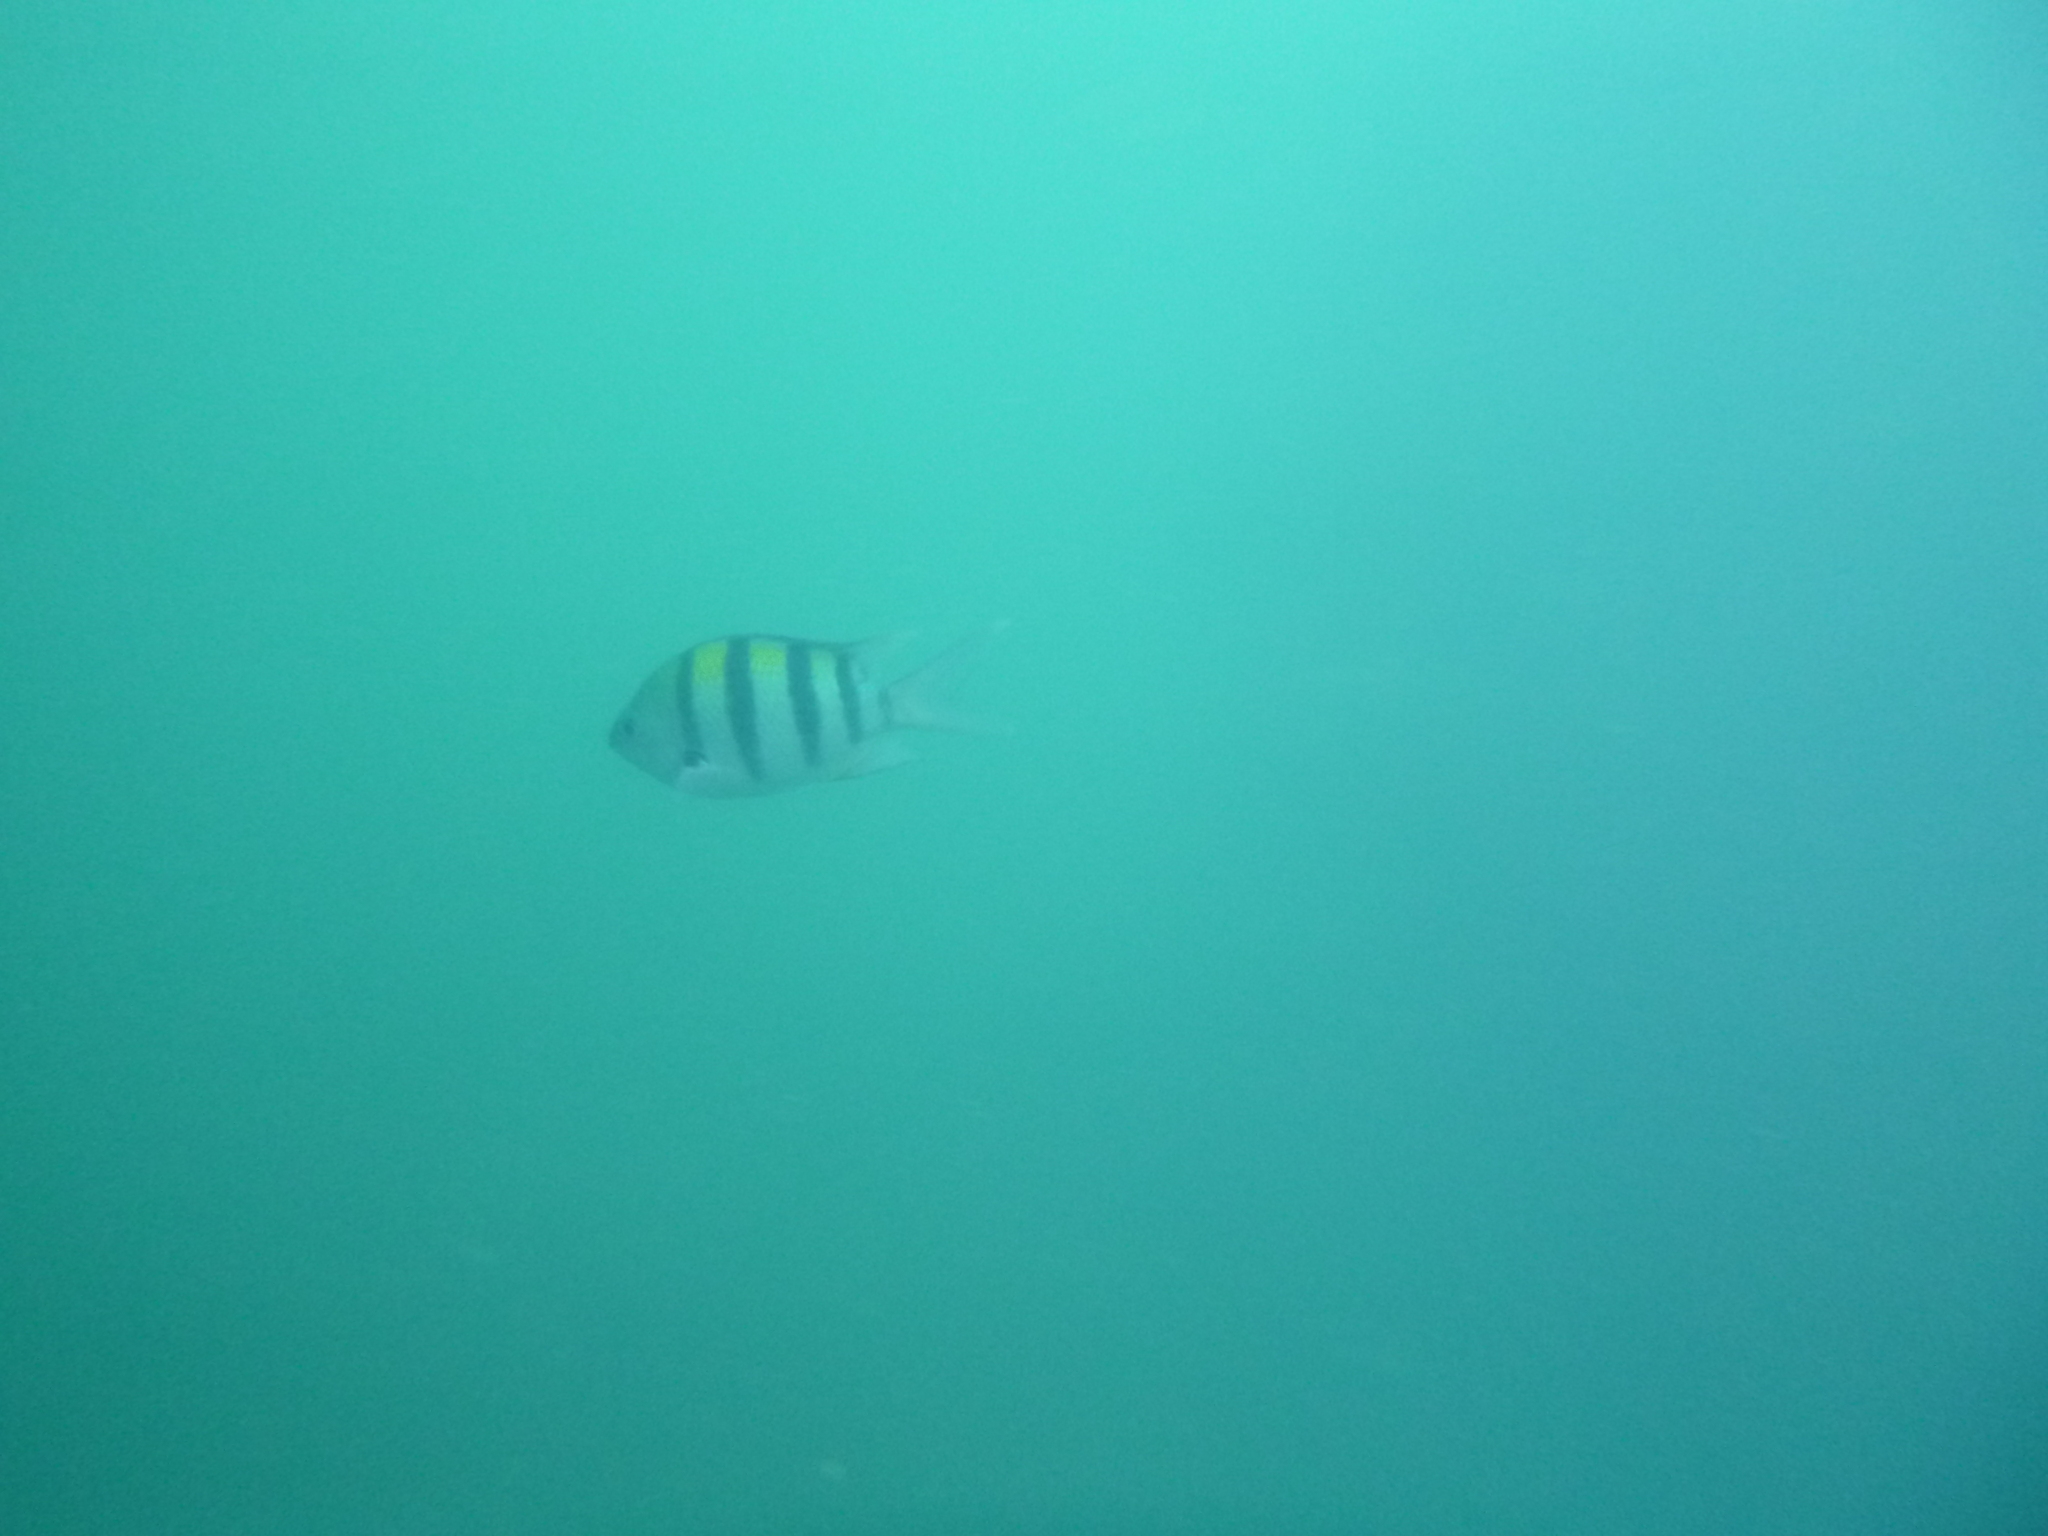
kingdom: Animalia
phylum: Chordata
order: Perciformes
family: Pomacentridae
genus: Abudefduf
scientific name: Abudefduf vaigiensis
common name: Indo-pacific sergeant
